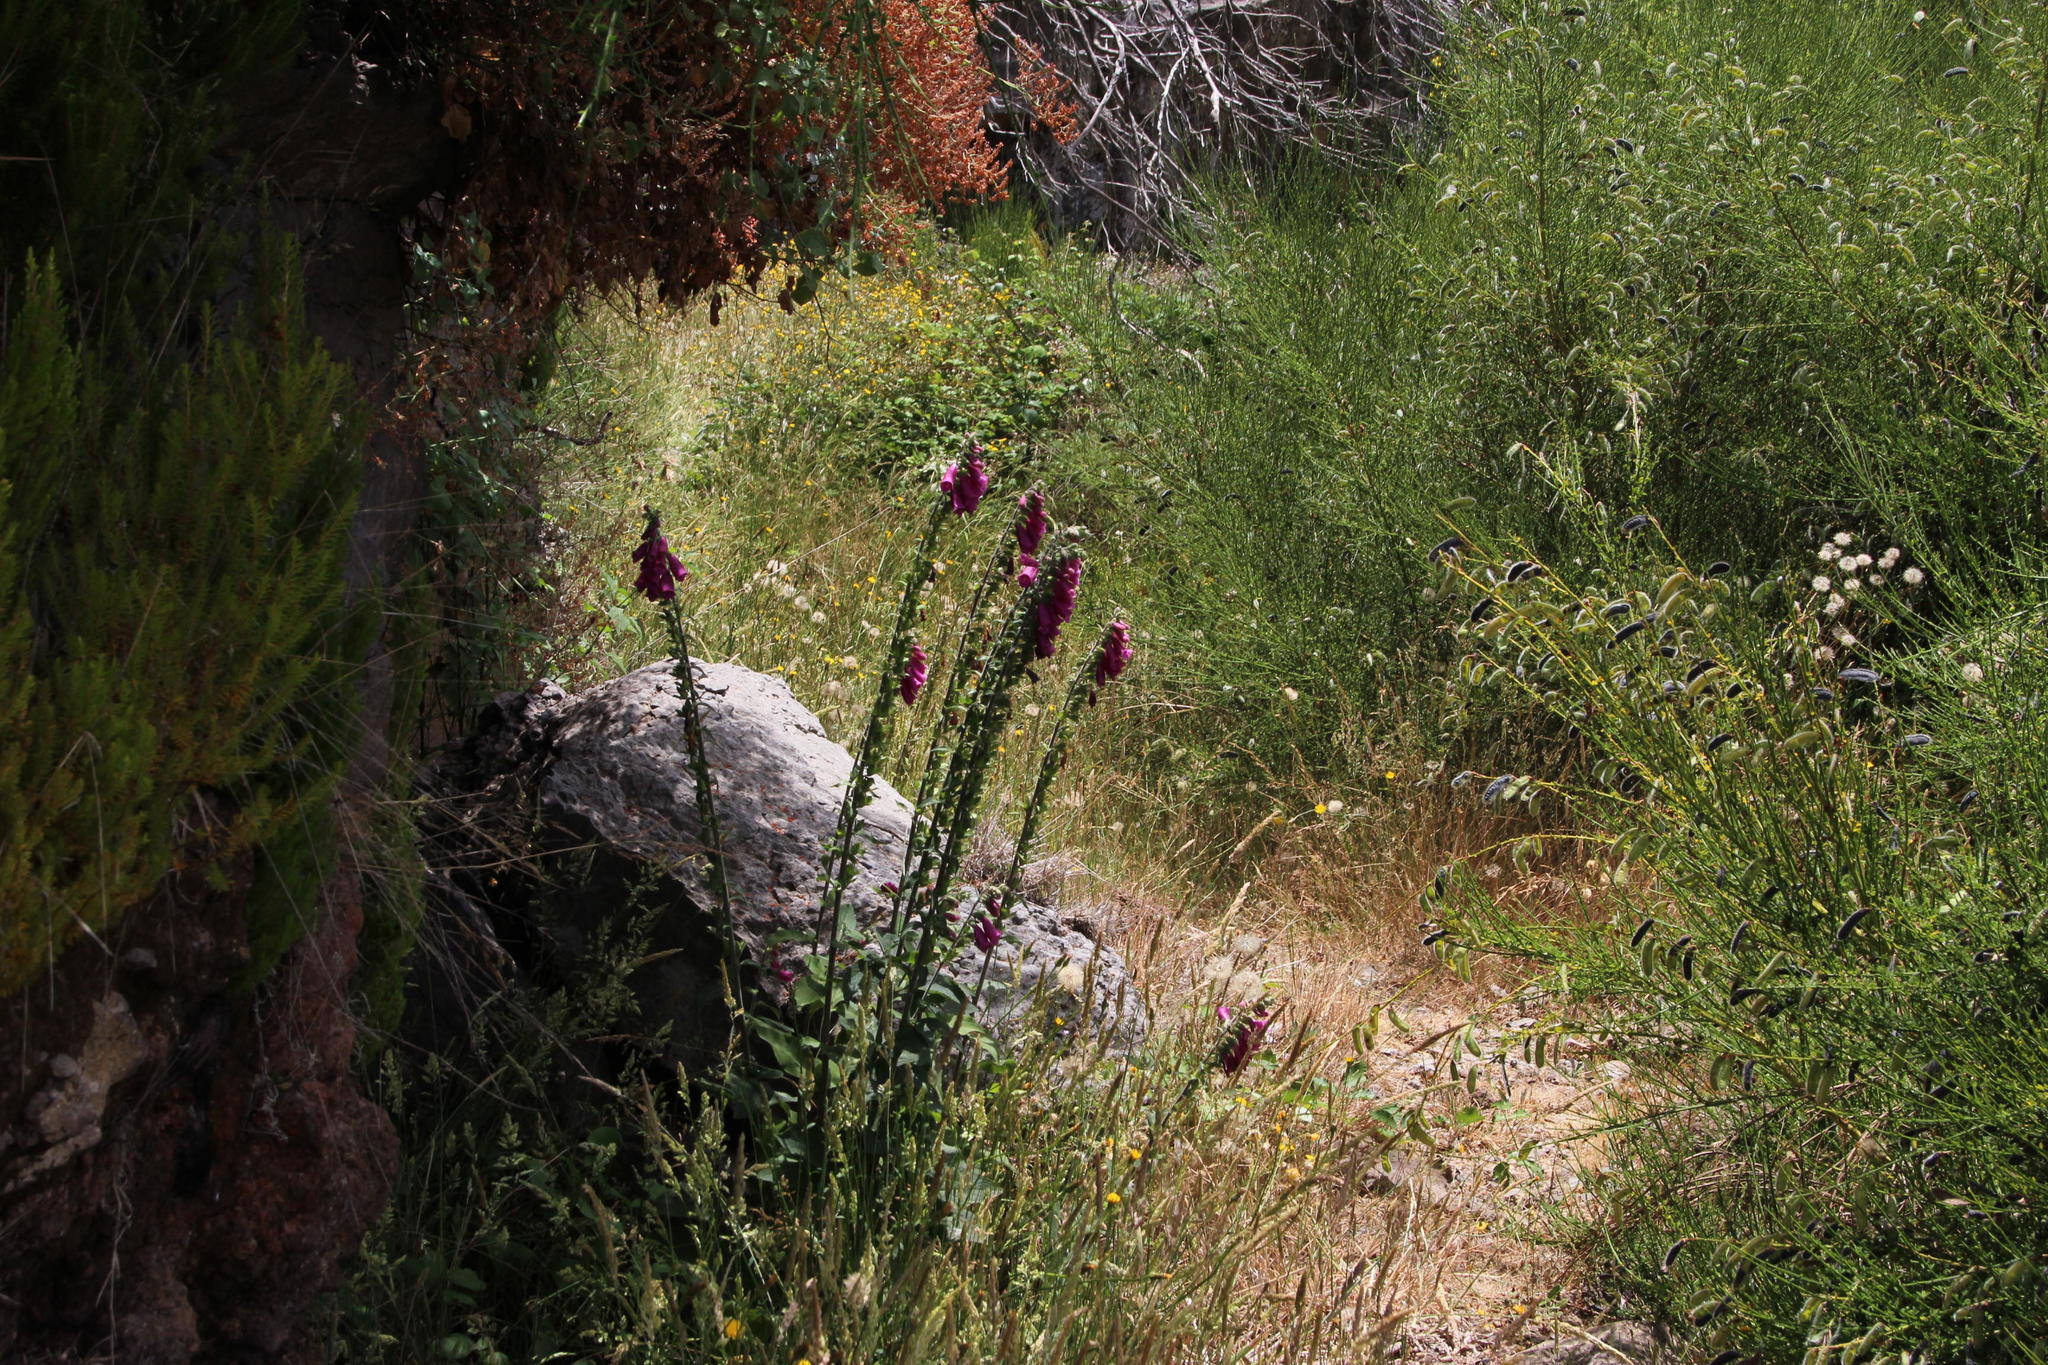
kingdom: Plantae
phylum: Tracheophyta
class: Magnoliopsida
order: Lamiales
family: Plantaginaceae
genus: Digitalis
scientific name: Digitalis purpurea
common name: Foxglove
